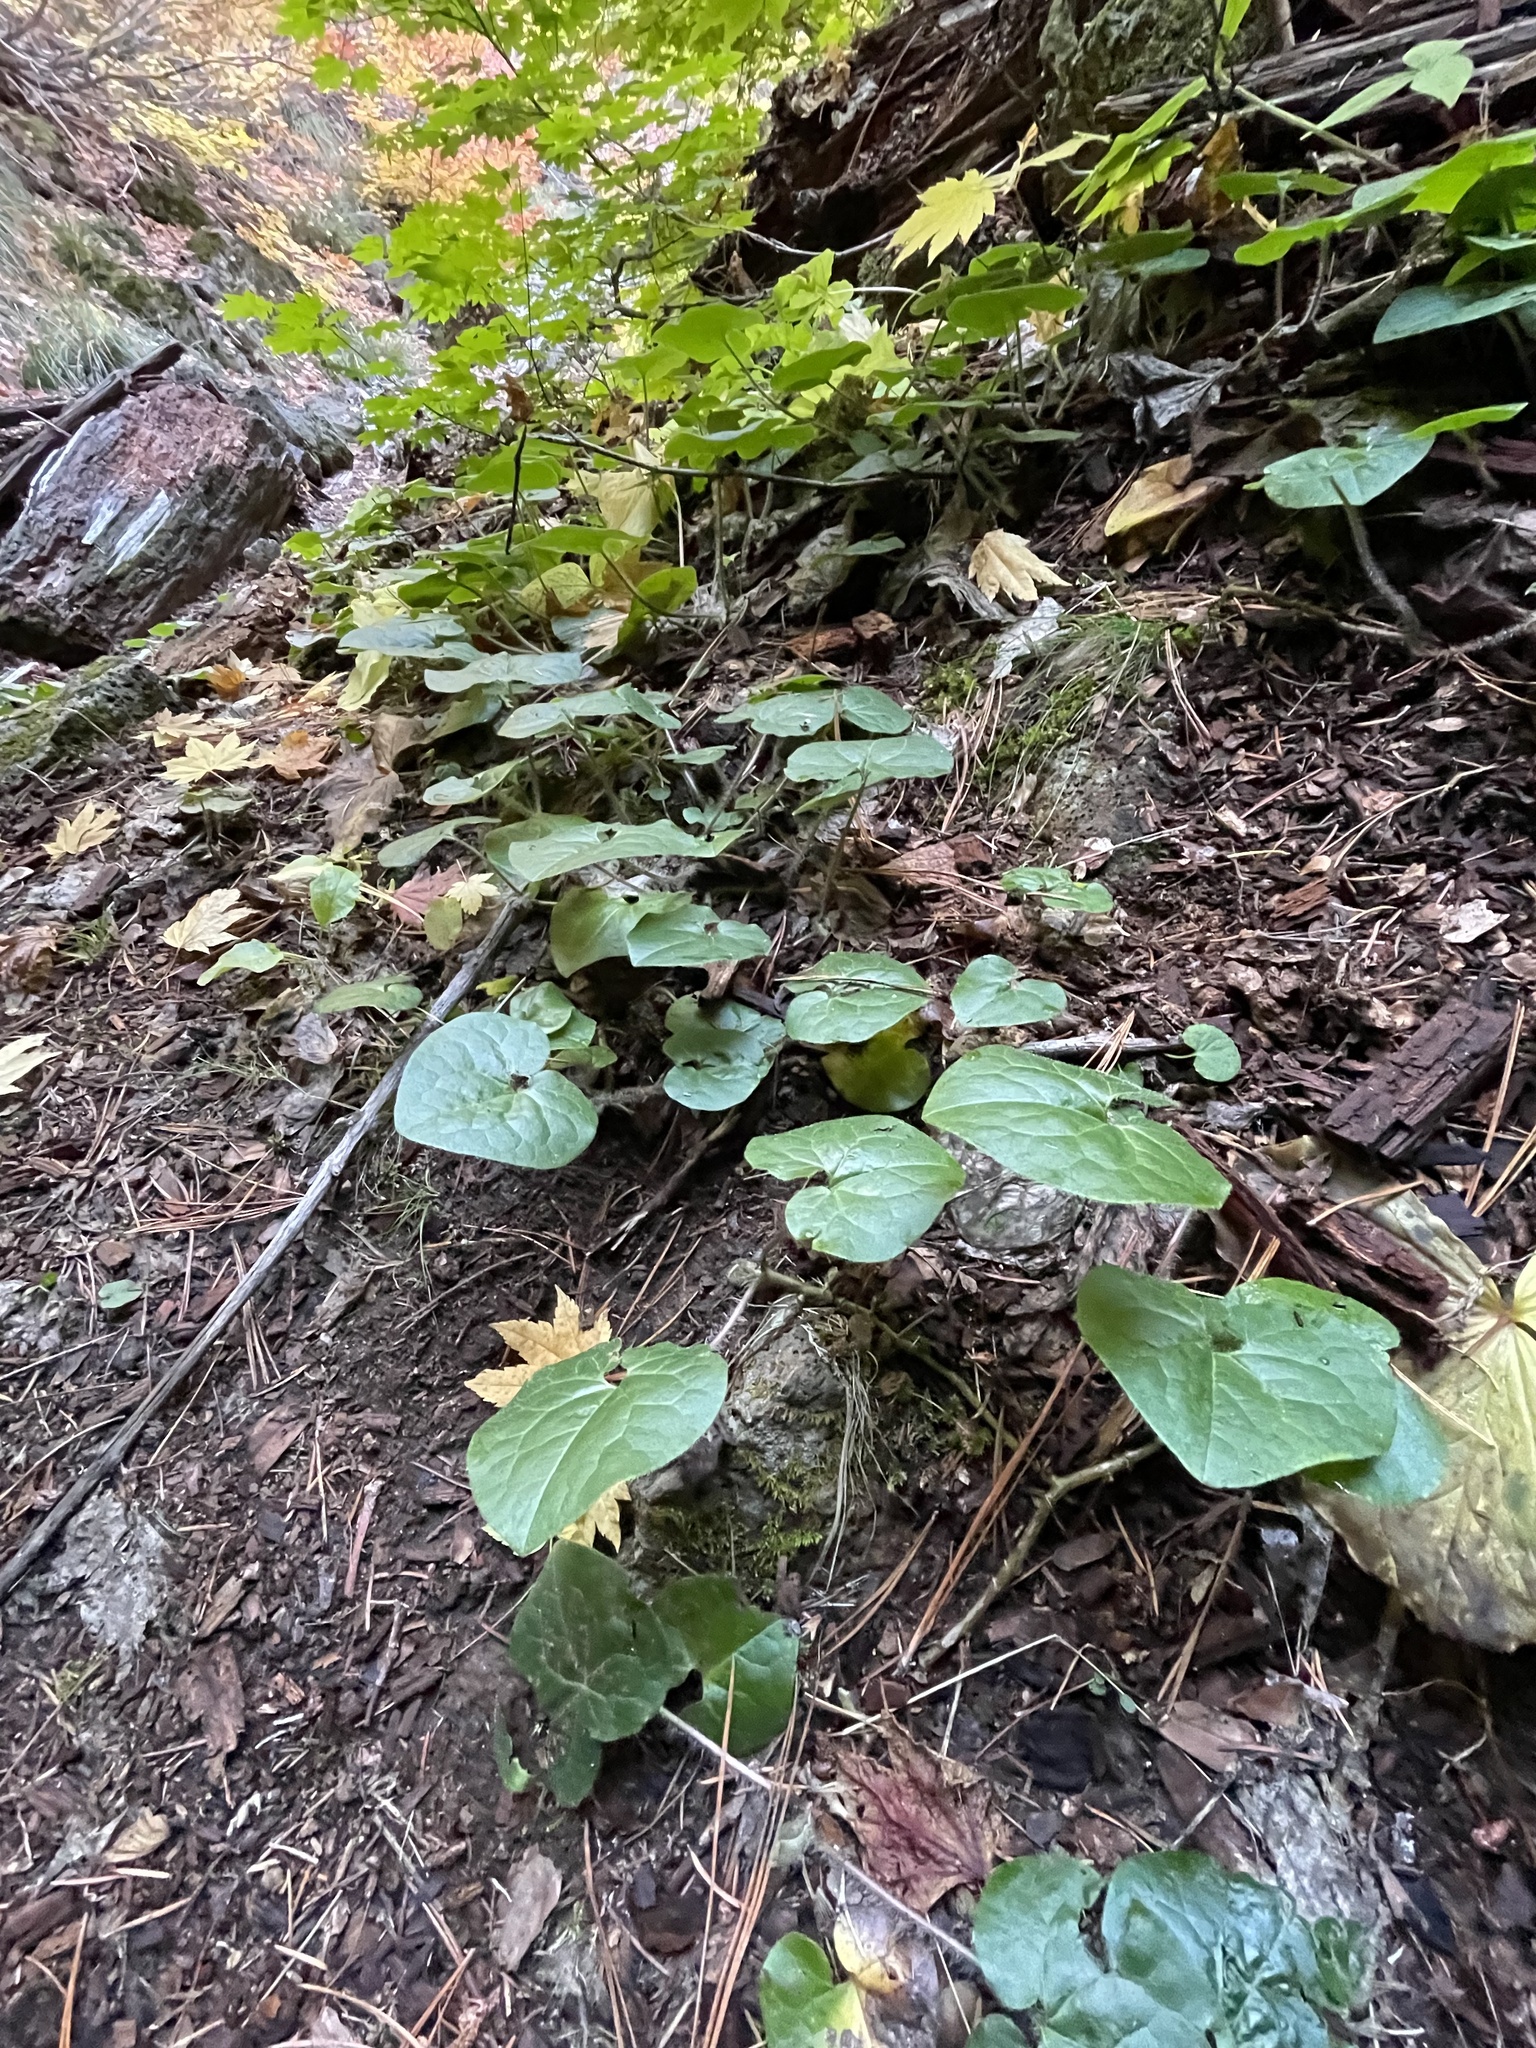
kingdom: Plantae
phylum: Tracheophyta
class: Magnoliopsida
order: Piperales
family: Aristolochiaceae
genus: Asarum
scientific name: Asarum caudatum
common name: Wild ginger
